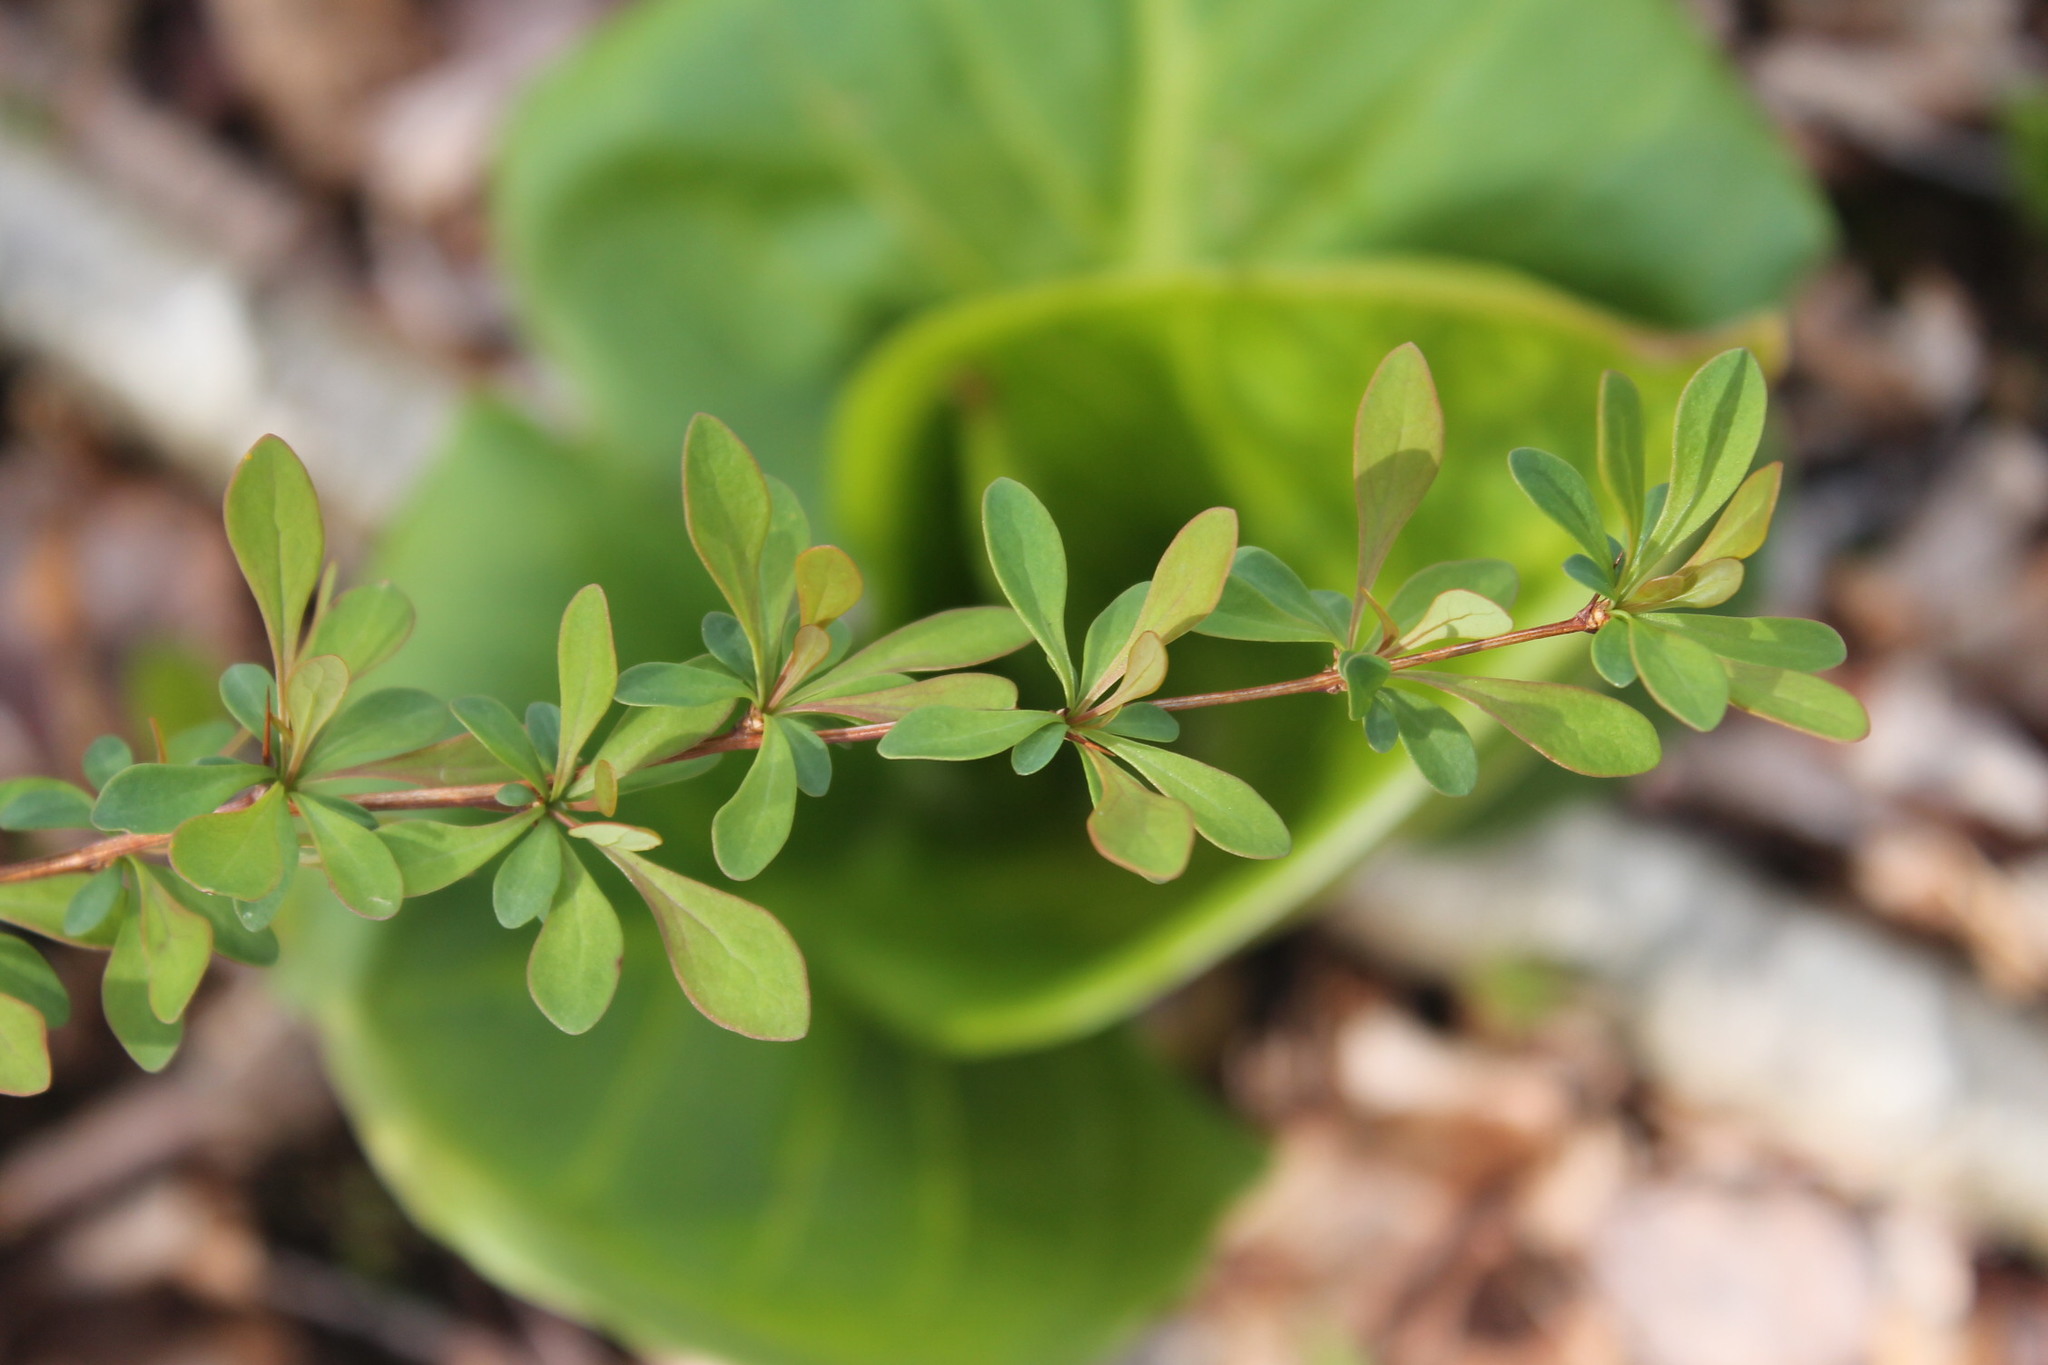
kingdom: Plantae
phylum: Tracheophyta
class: Magnoliopsida
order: Ranunculales
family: Berberidaceae
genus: Berberis
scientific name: Berberis thunbergii
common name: Japanese barberry
